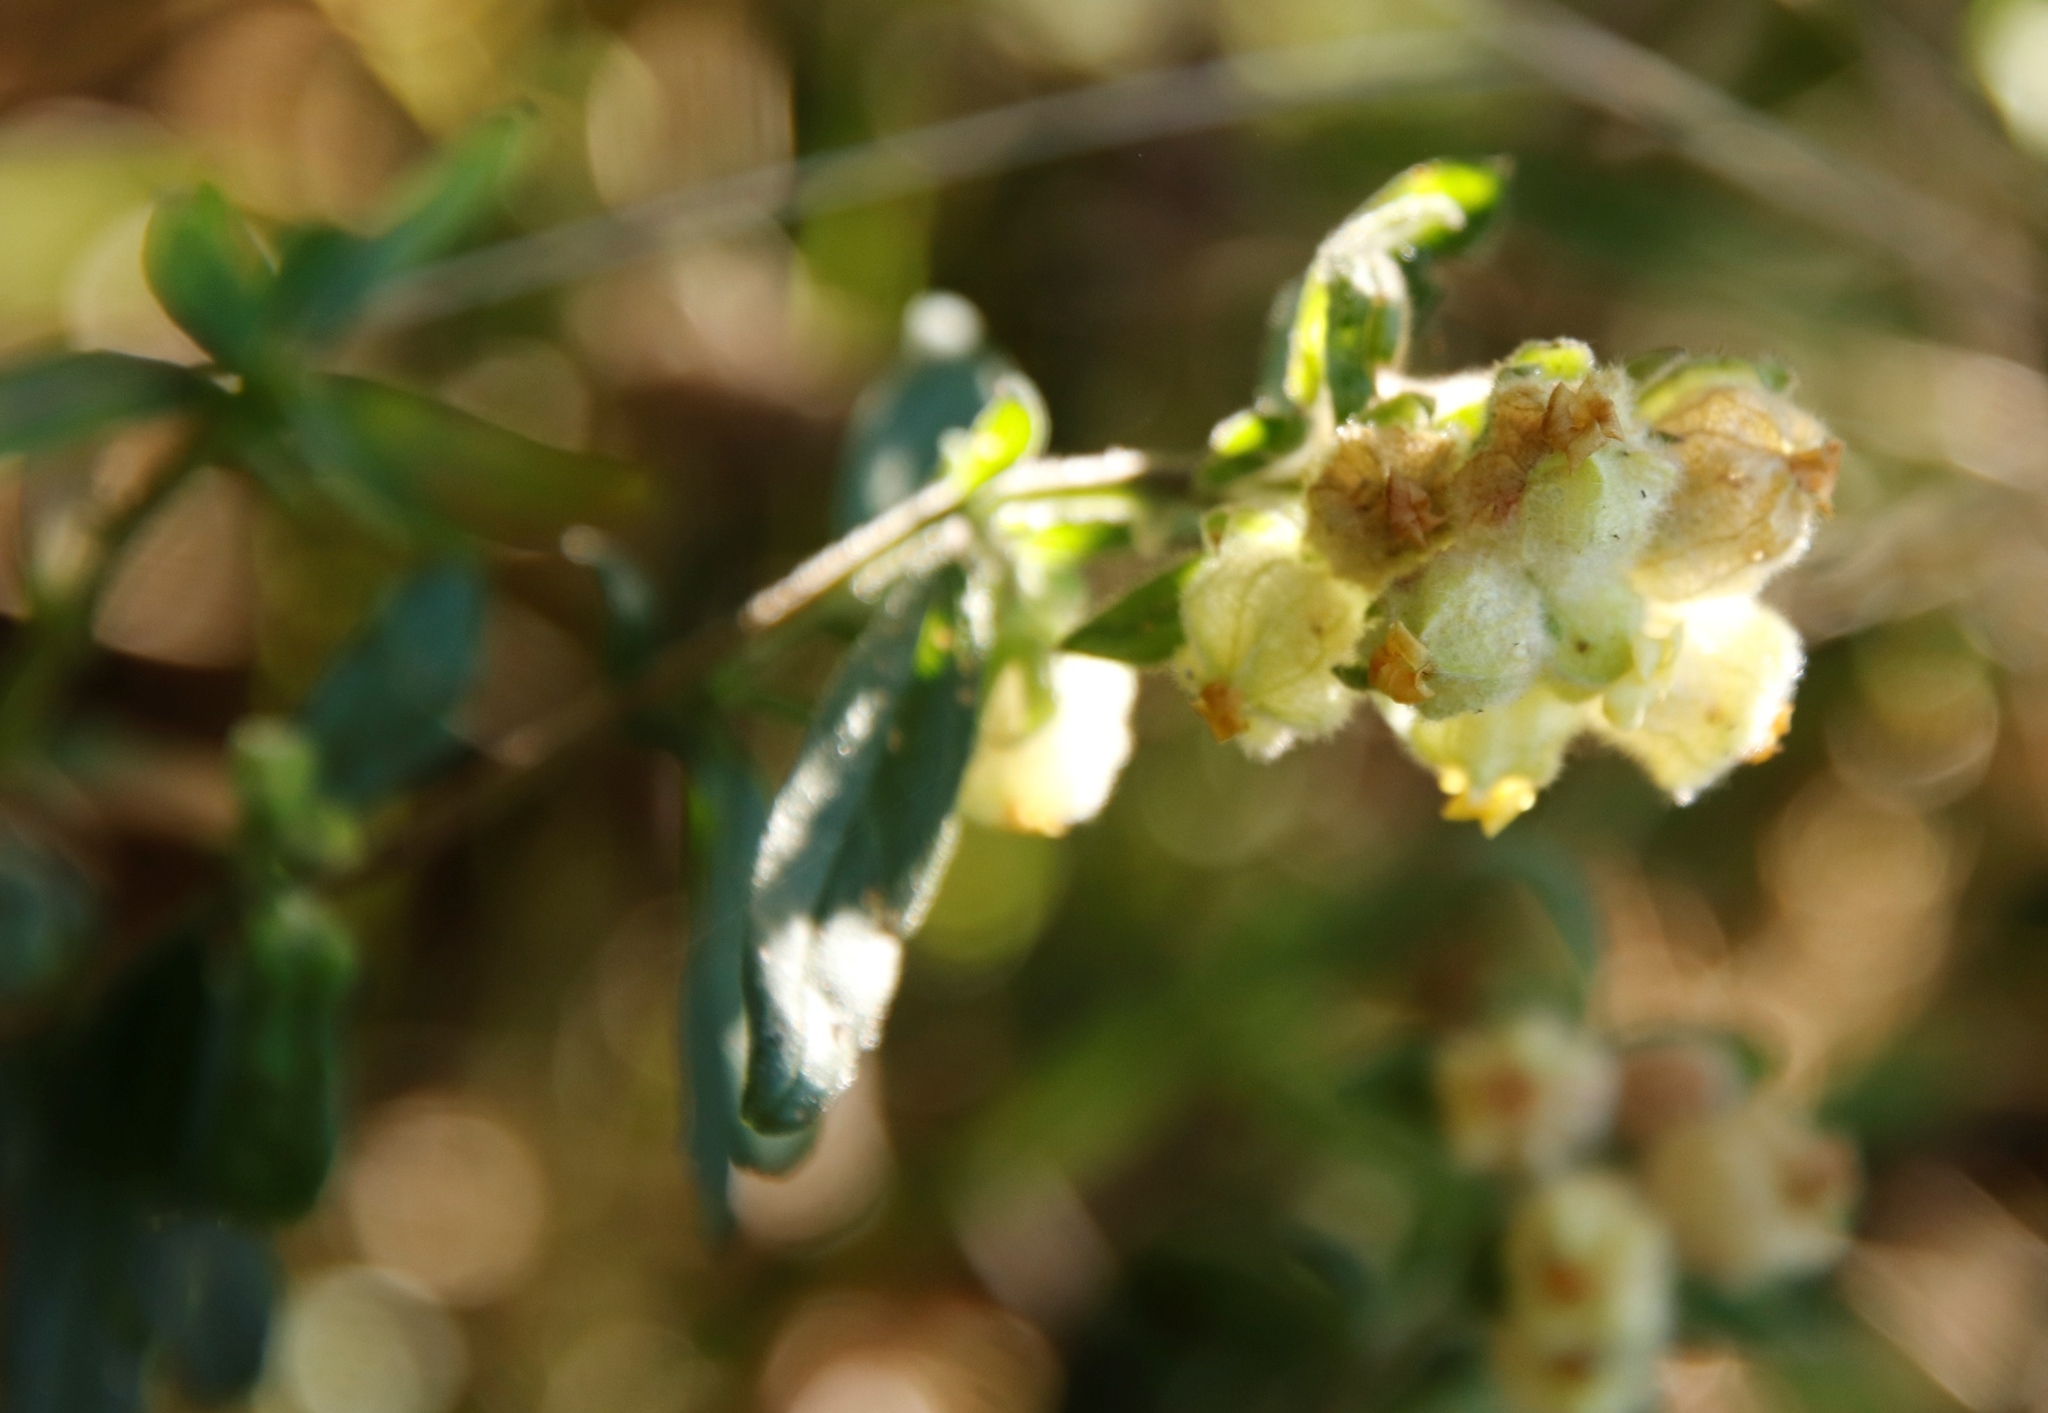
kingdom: Plantae
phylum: Tracheophyta
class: Magnoliopsida
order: Malvales
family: Malvaceae
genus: Hermannia
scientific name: Hermannia hyssopifolia
